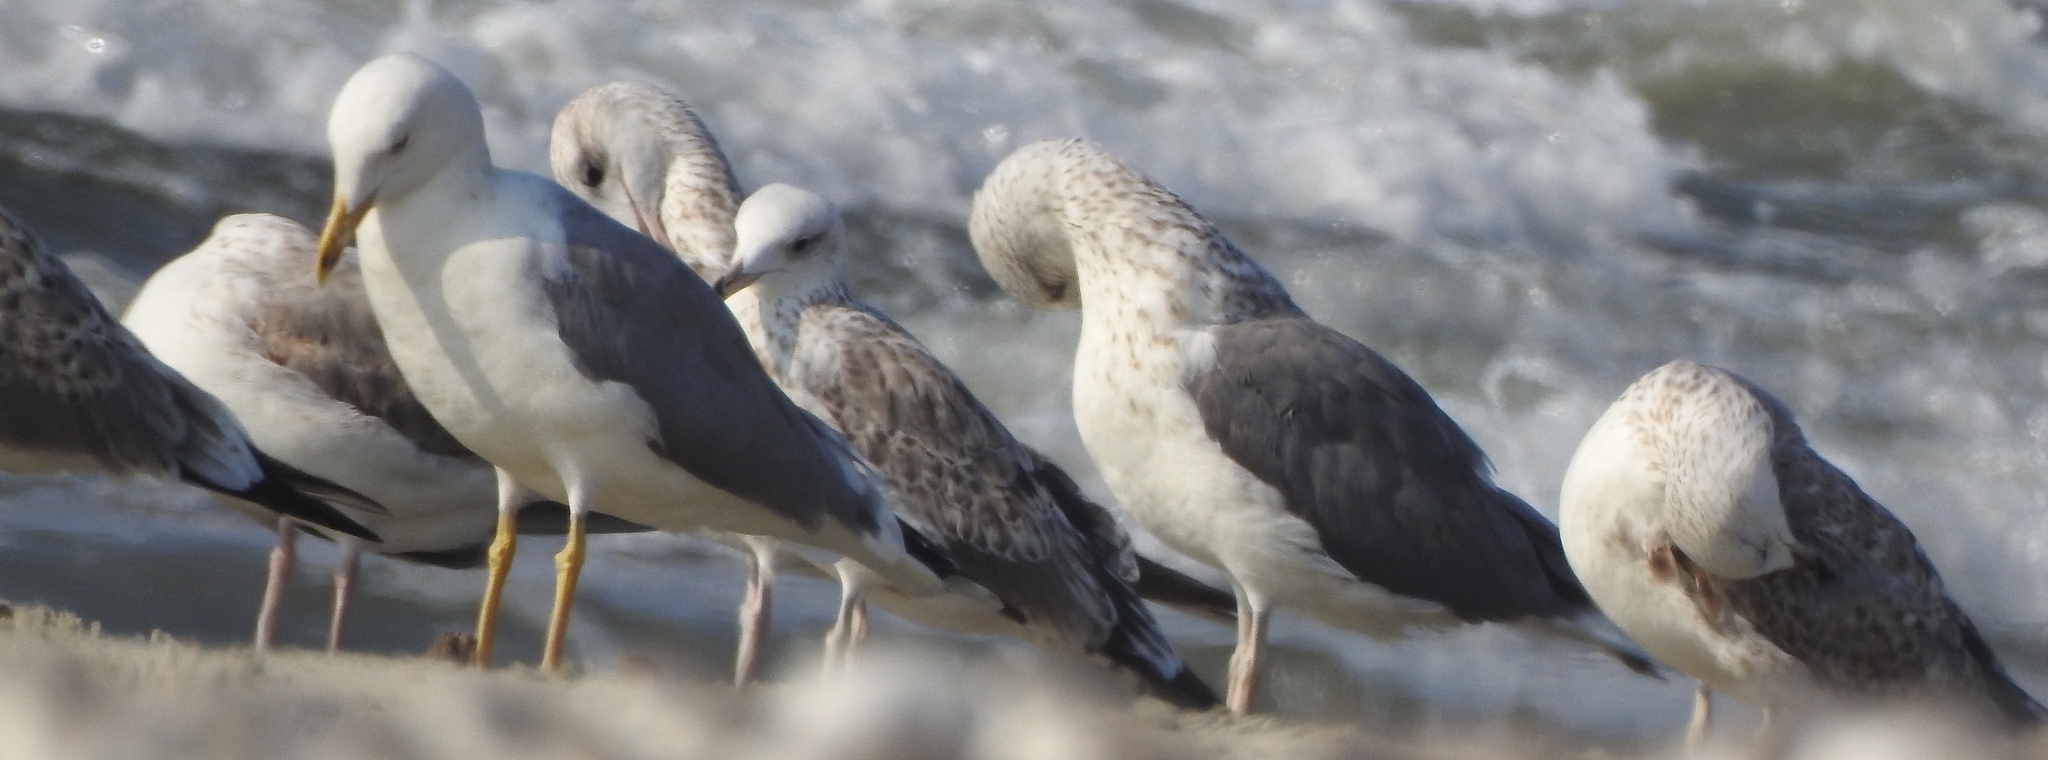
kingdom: Animalia
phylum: Chordata
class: Aves
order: Charadriiformes
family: Laridae
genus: Larus
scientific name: Larus fuscus
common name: Lesser black-backed gull
